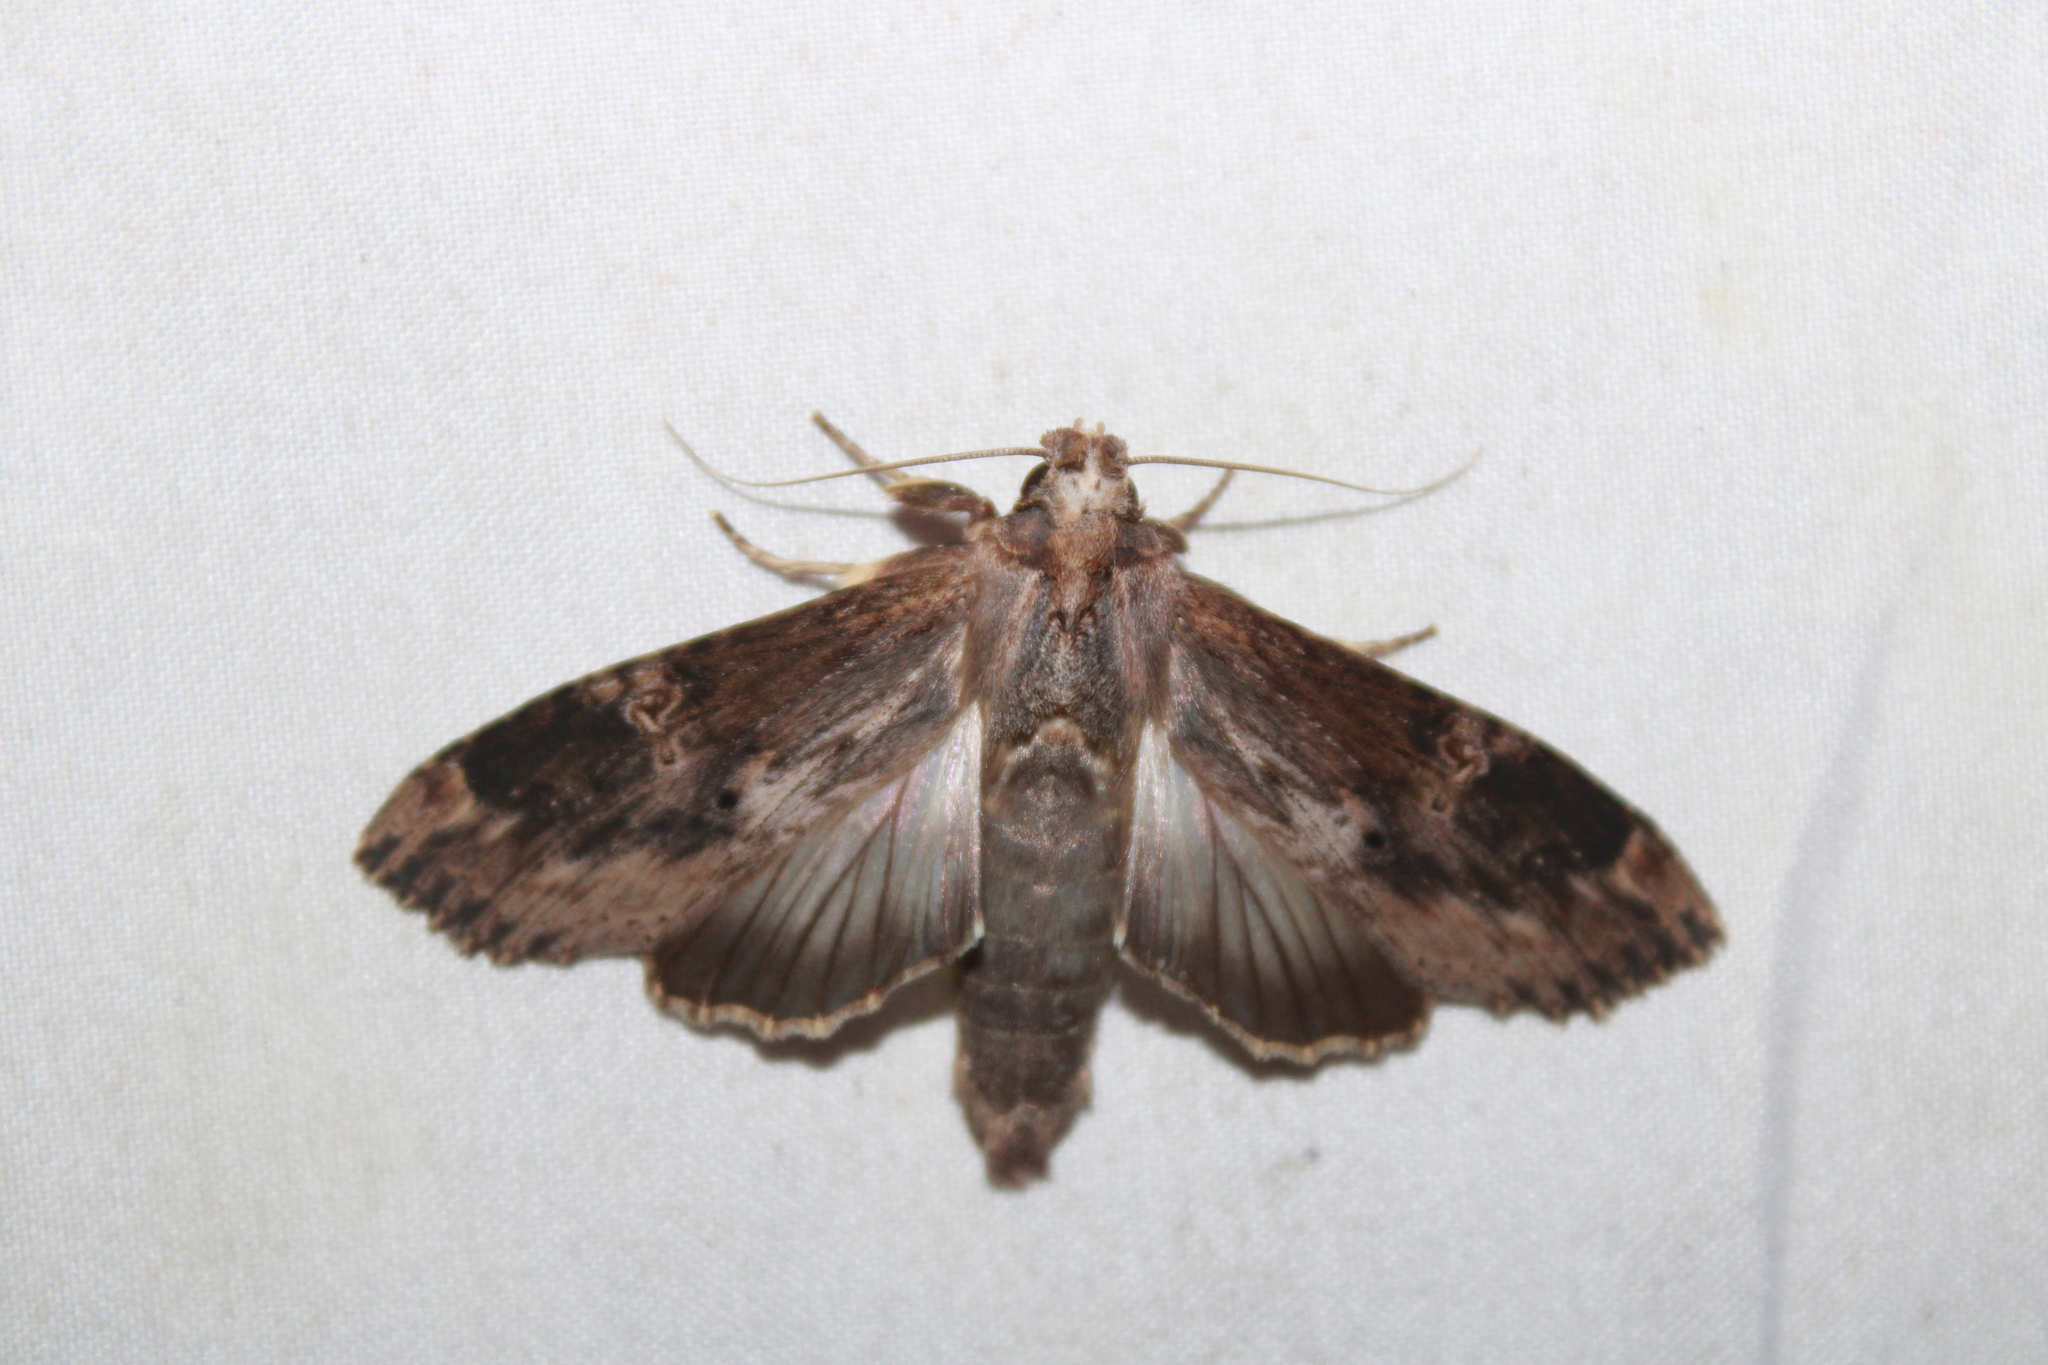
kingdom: Animalia
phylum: Arthropoda
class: Insecta
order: Lepidoptera
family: Notodontidae
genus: Nystalea
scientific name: Nystalea eutalanta
